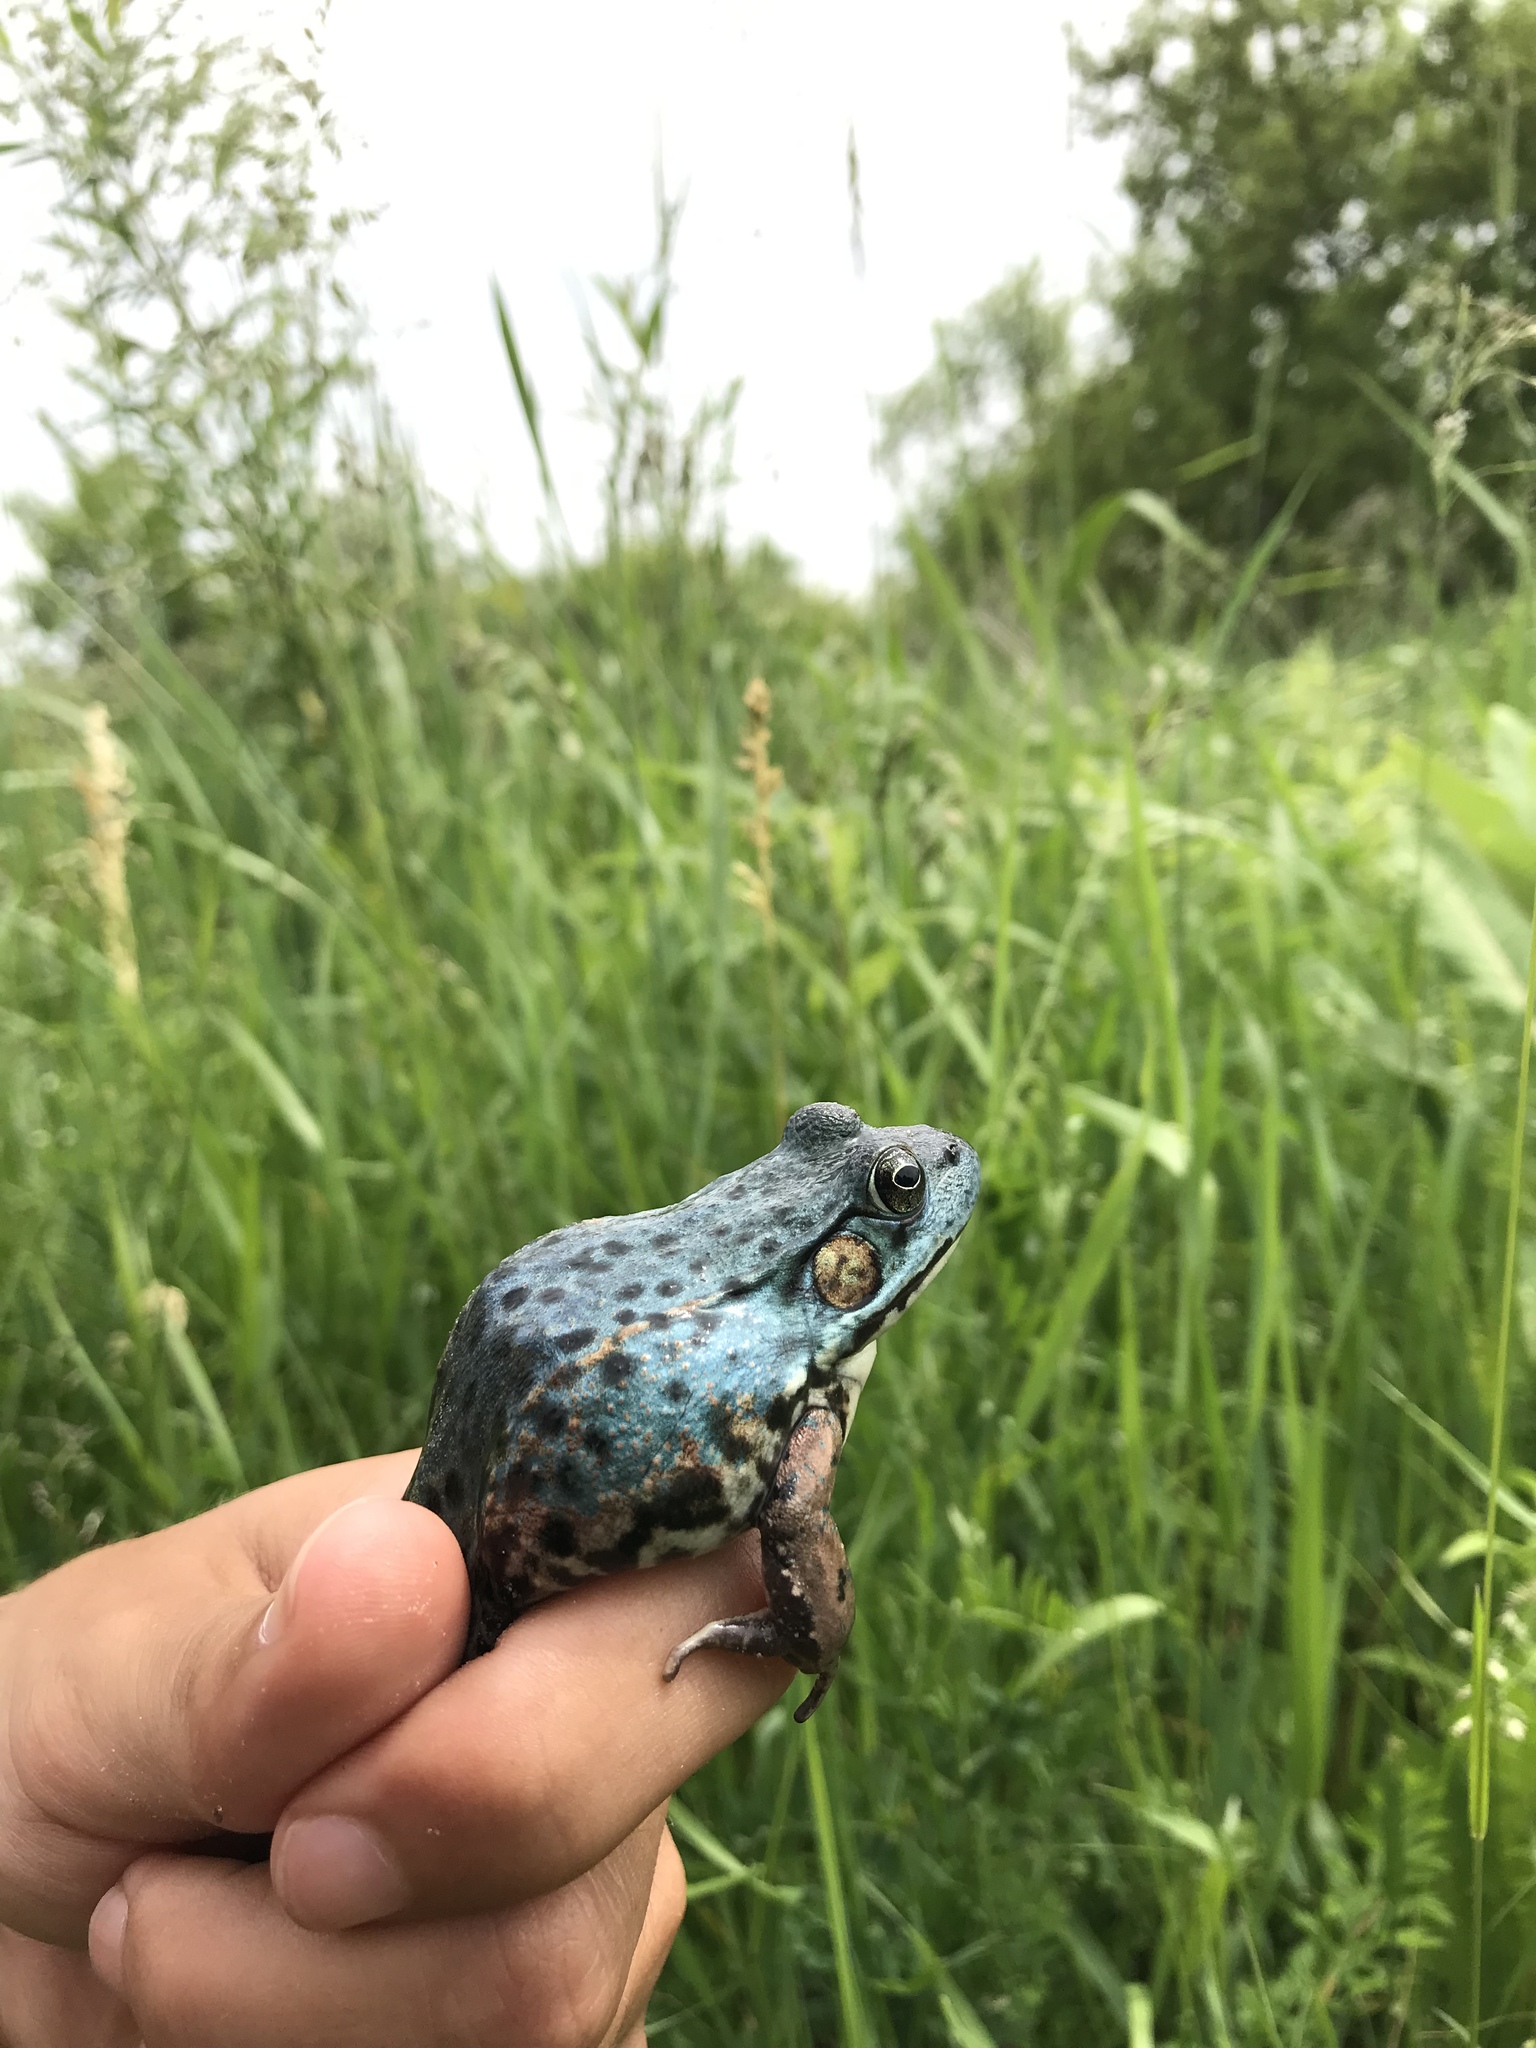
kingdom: Animalia
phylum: Chordata
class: Amphibia
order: Anura
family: Ranidae
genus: Lithobates
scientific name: Lithobates clamitans
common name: Green frog
